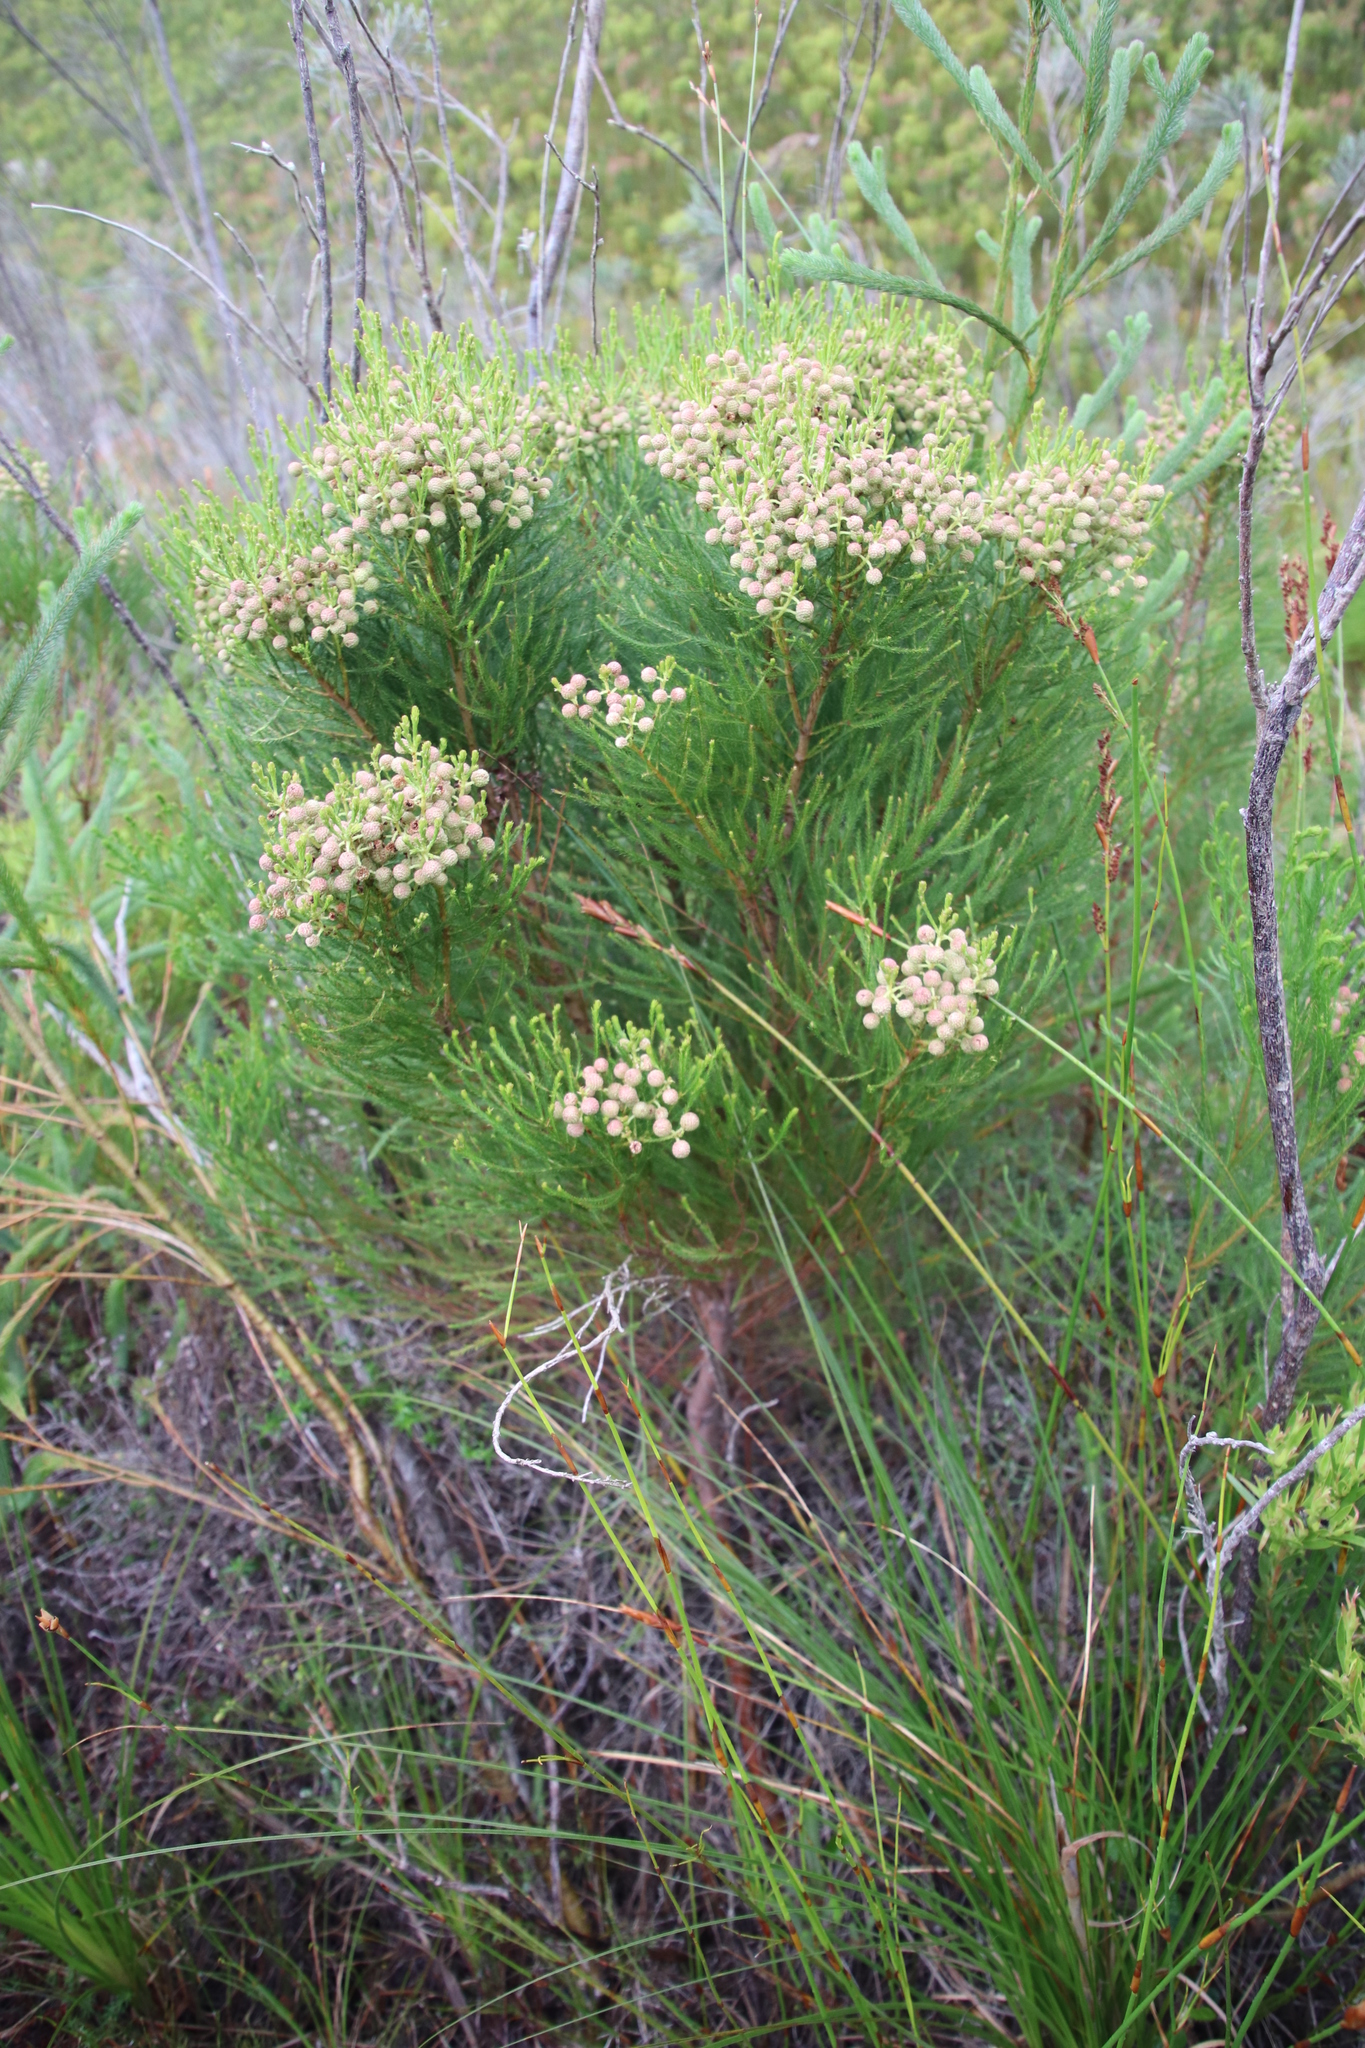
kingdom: Plantae
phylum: Tracheophyta
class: Magnoliopsida
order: Bruniales
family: Bruniaceae
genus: Berzelia
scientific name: Berzelia lanuginosa
